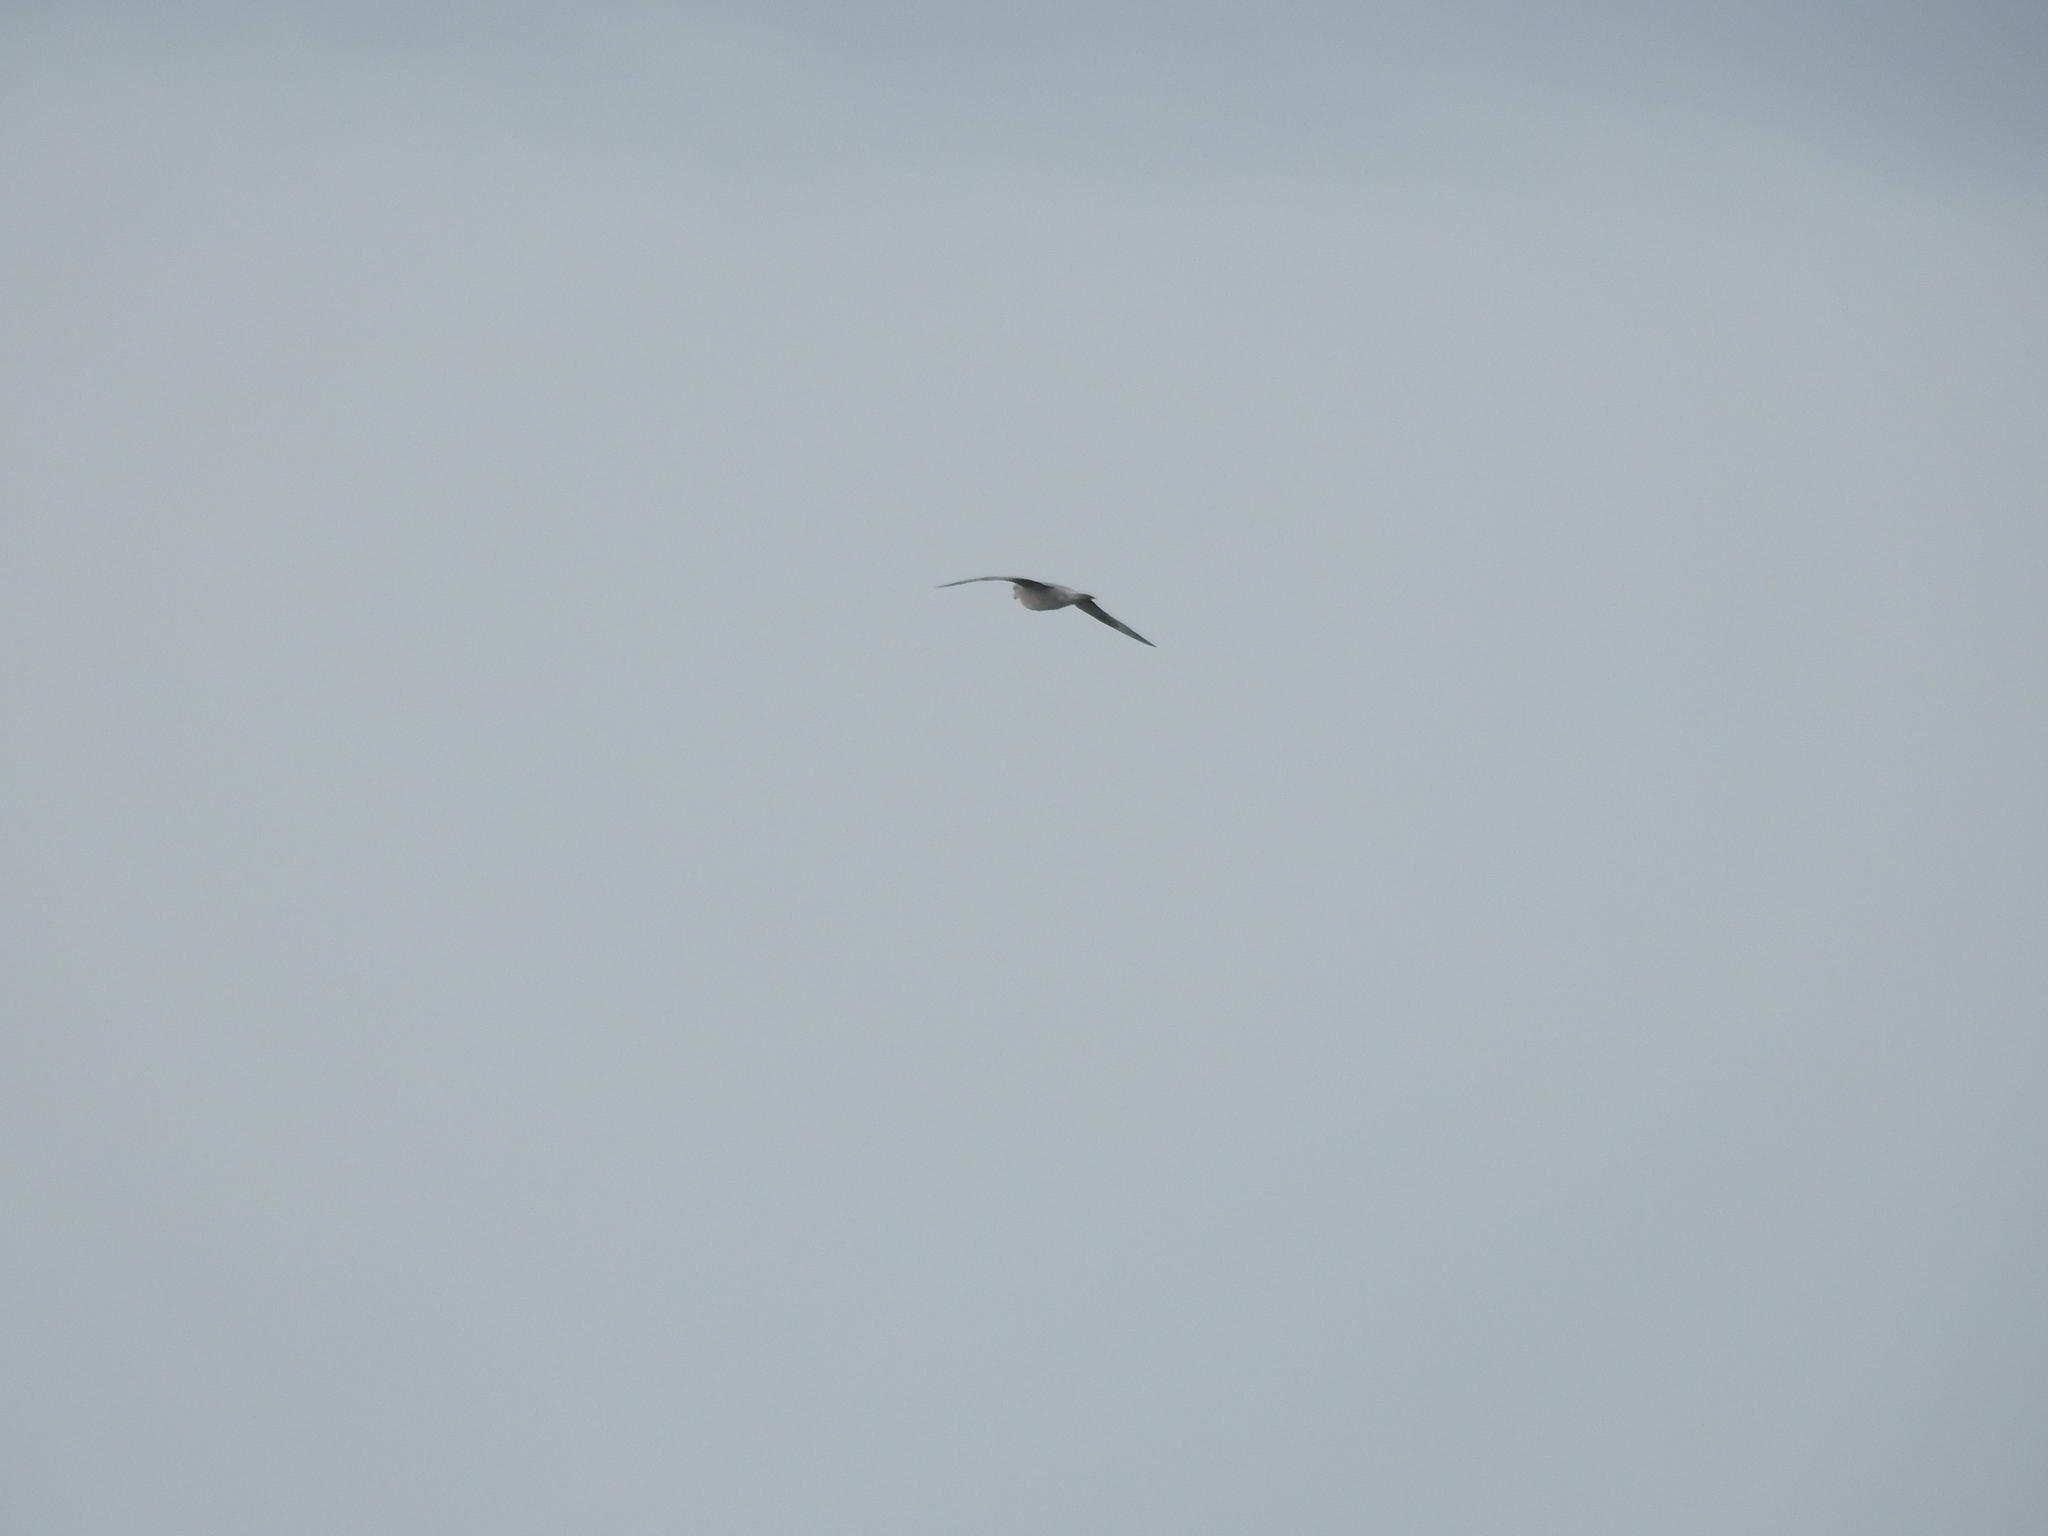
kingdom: Animalia
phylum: Chordata
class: Aves
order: Procellariiformes
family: Procellariidae
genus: Fulmarus
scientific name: Fulmarus glacialis
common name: Northern fulmar
